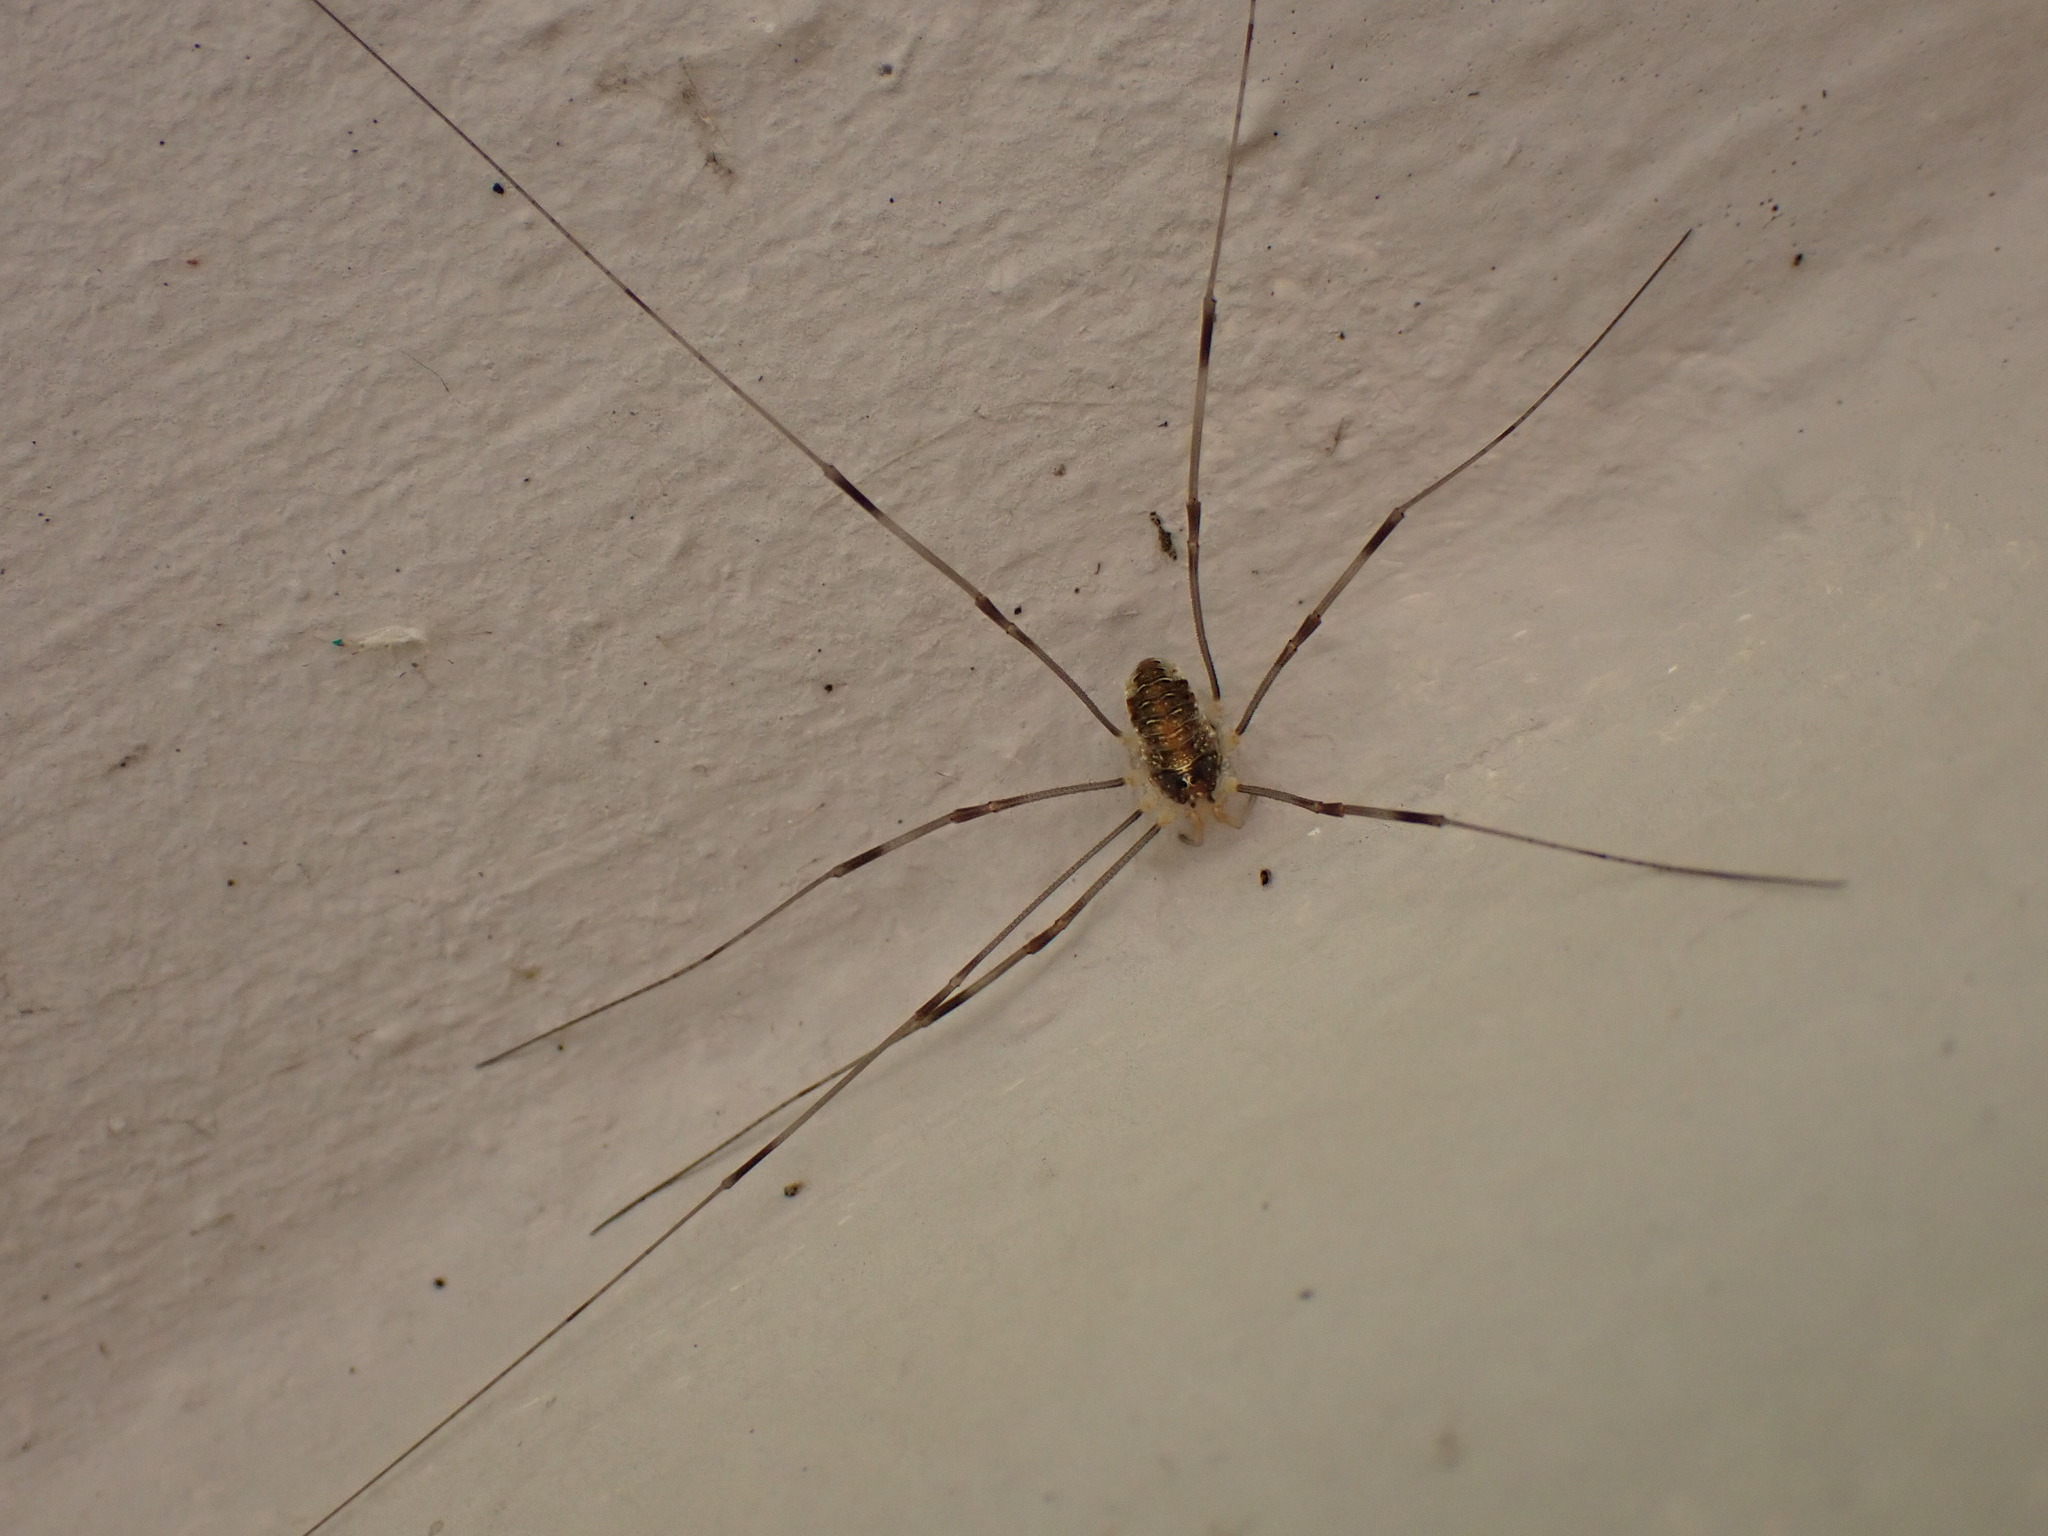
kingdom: Animalia
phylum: Arthropoda
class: Arachnida
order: Opiliones
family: Phalangiidae
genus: Opilio
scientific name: Opilio canestrinii
